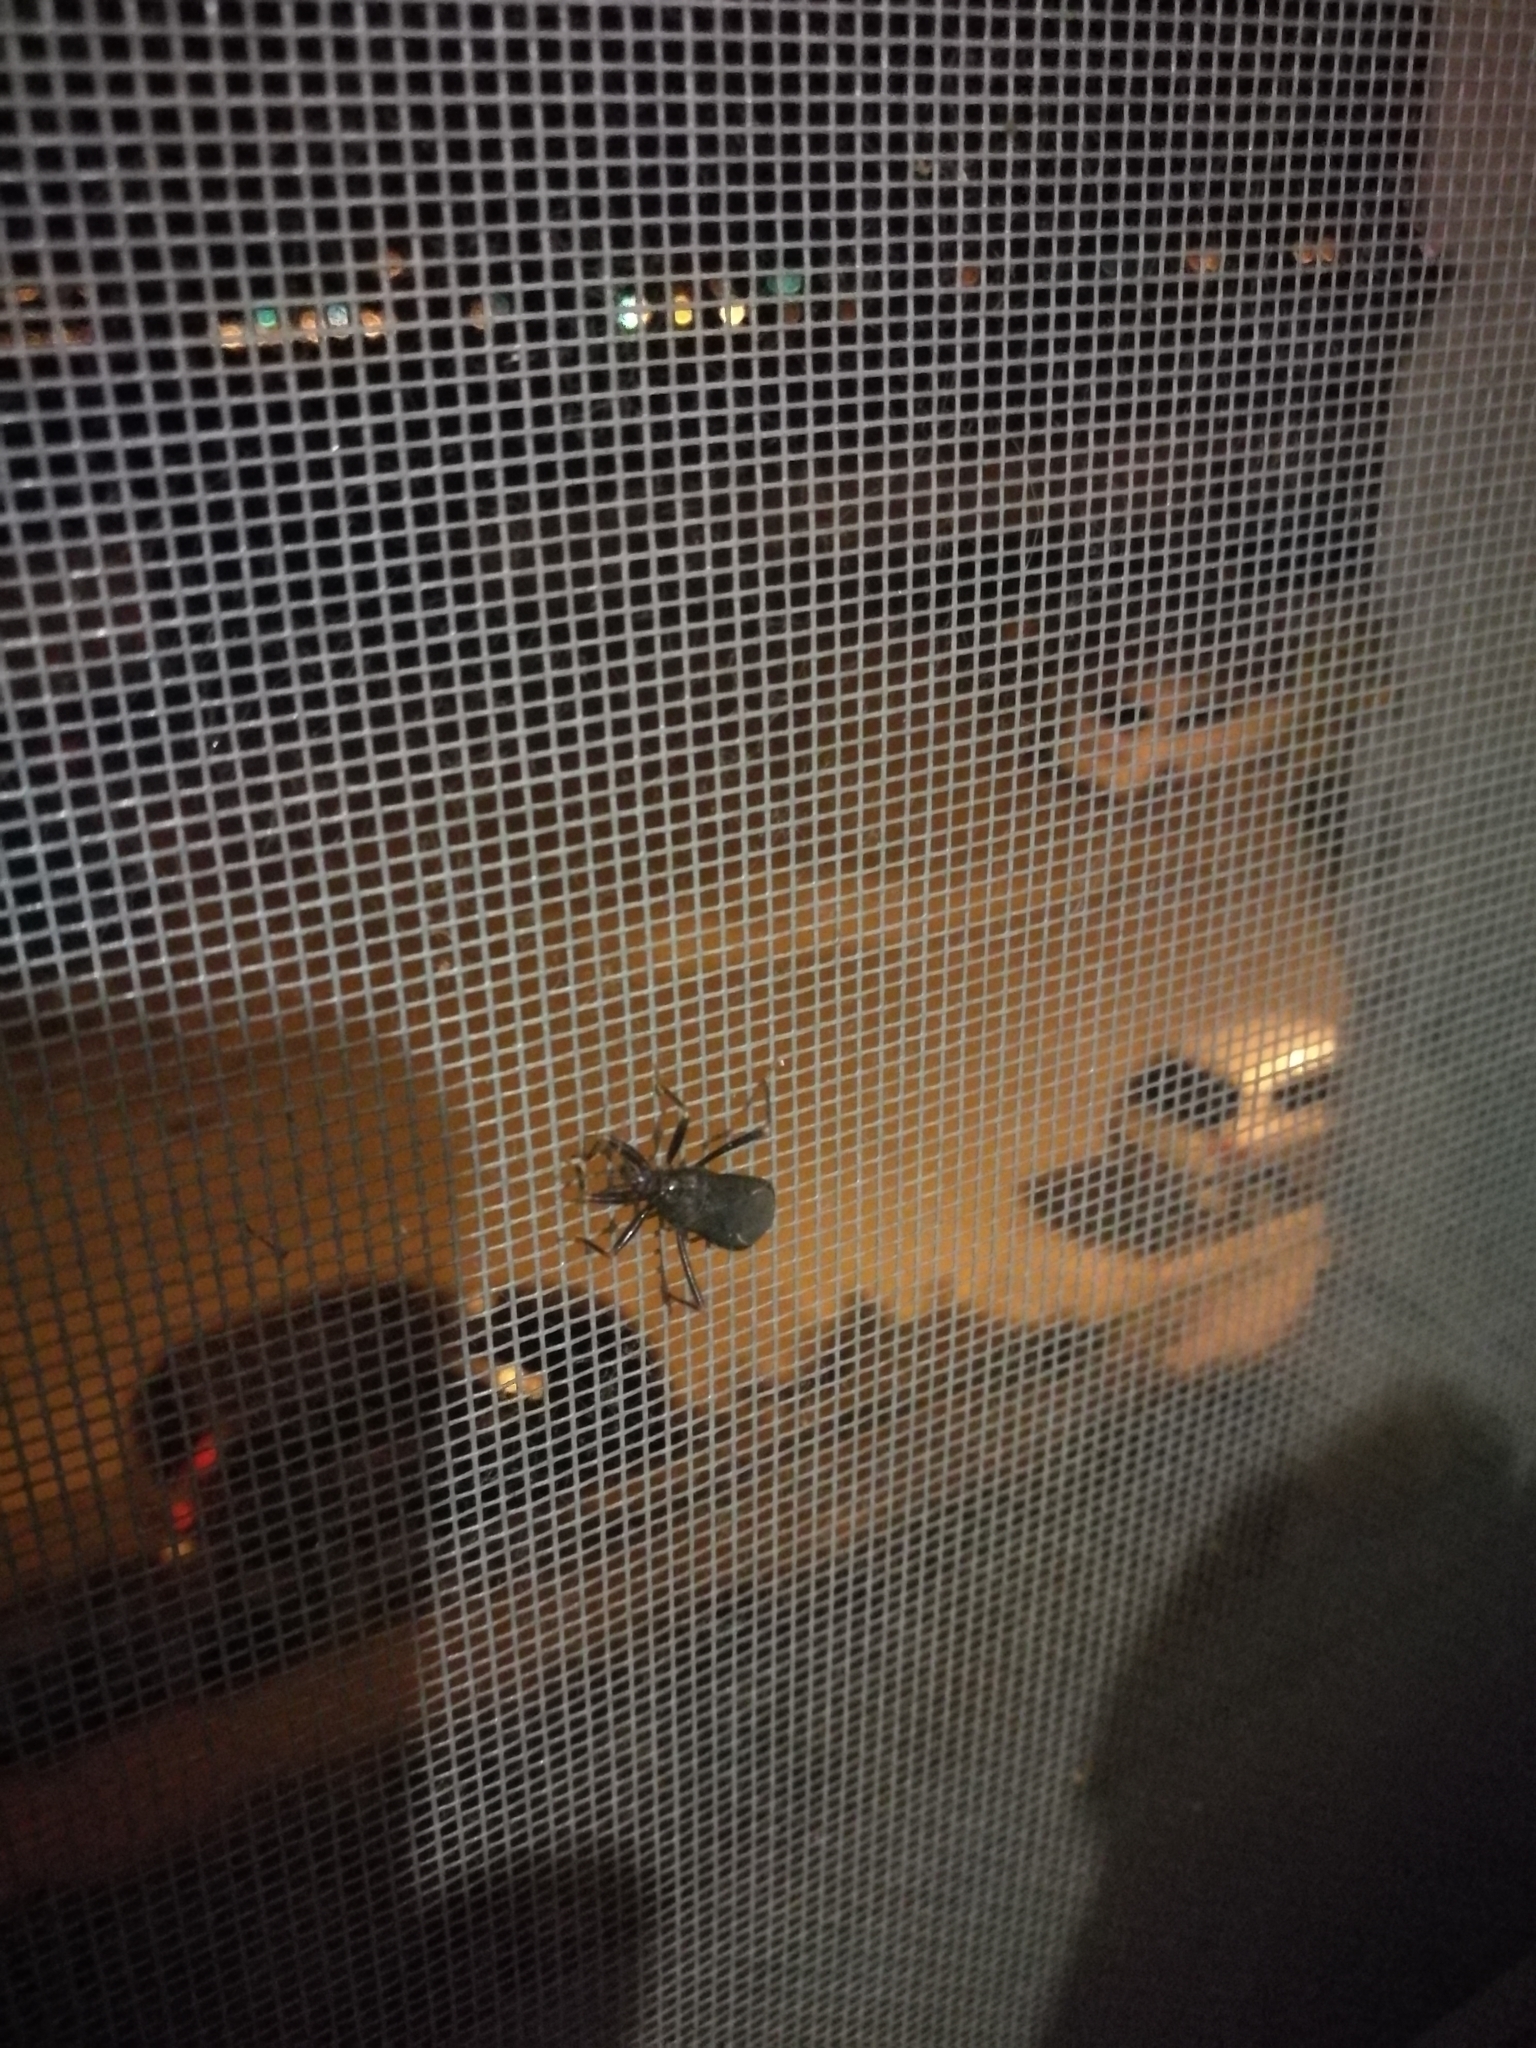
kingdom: Animalia
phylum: Arthropoda
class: Insecta
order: Hemiptera
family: Reduviidae
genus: Reduvius
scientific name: Reduvius personatus
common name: Masked hunter
